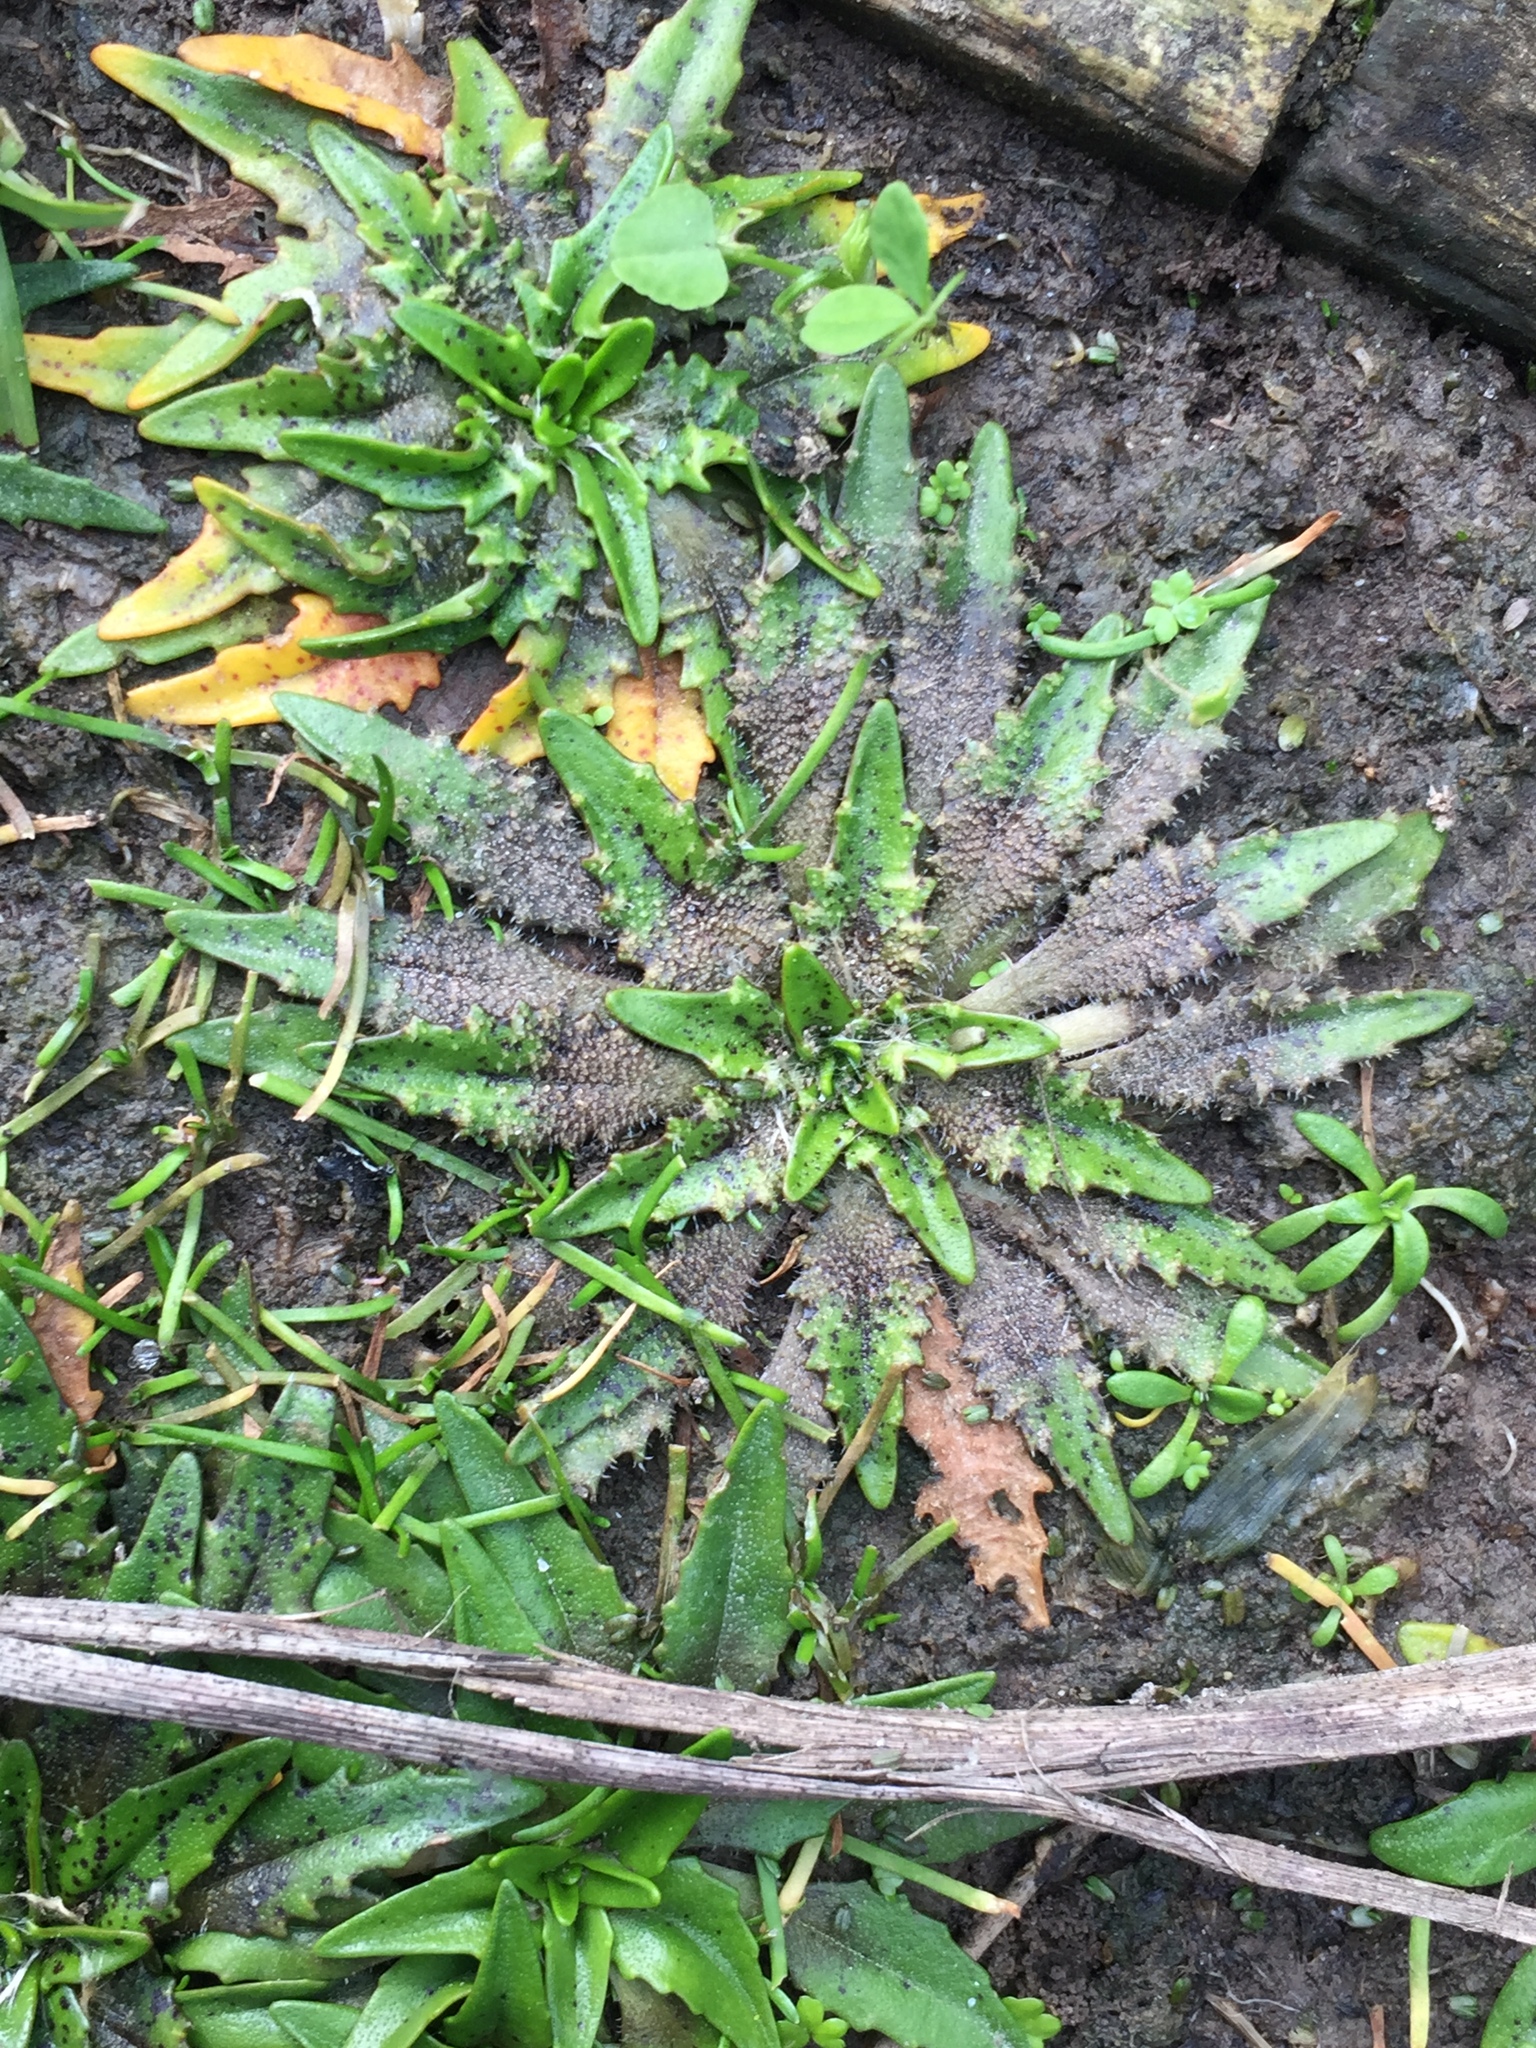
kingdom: Plantae
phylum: Tracheophyta
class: Magnoliopsida
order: Lamiales
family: Plantaginaceae
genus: Plantago
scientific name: Plantago triandra
